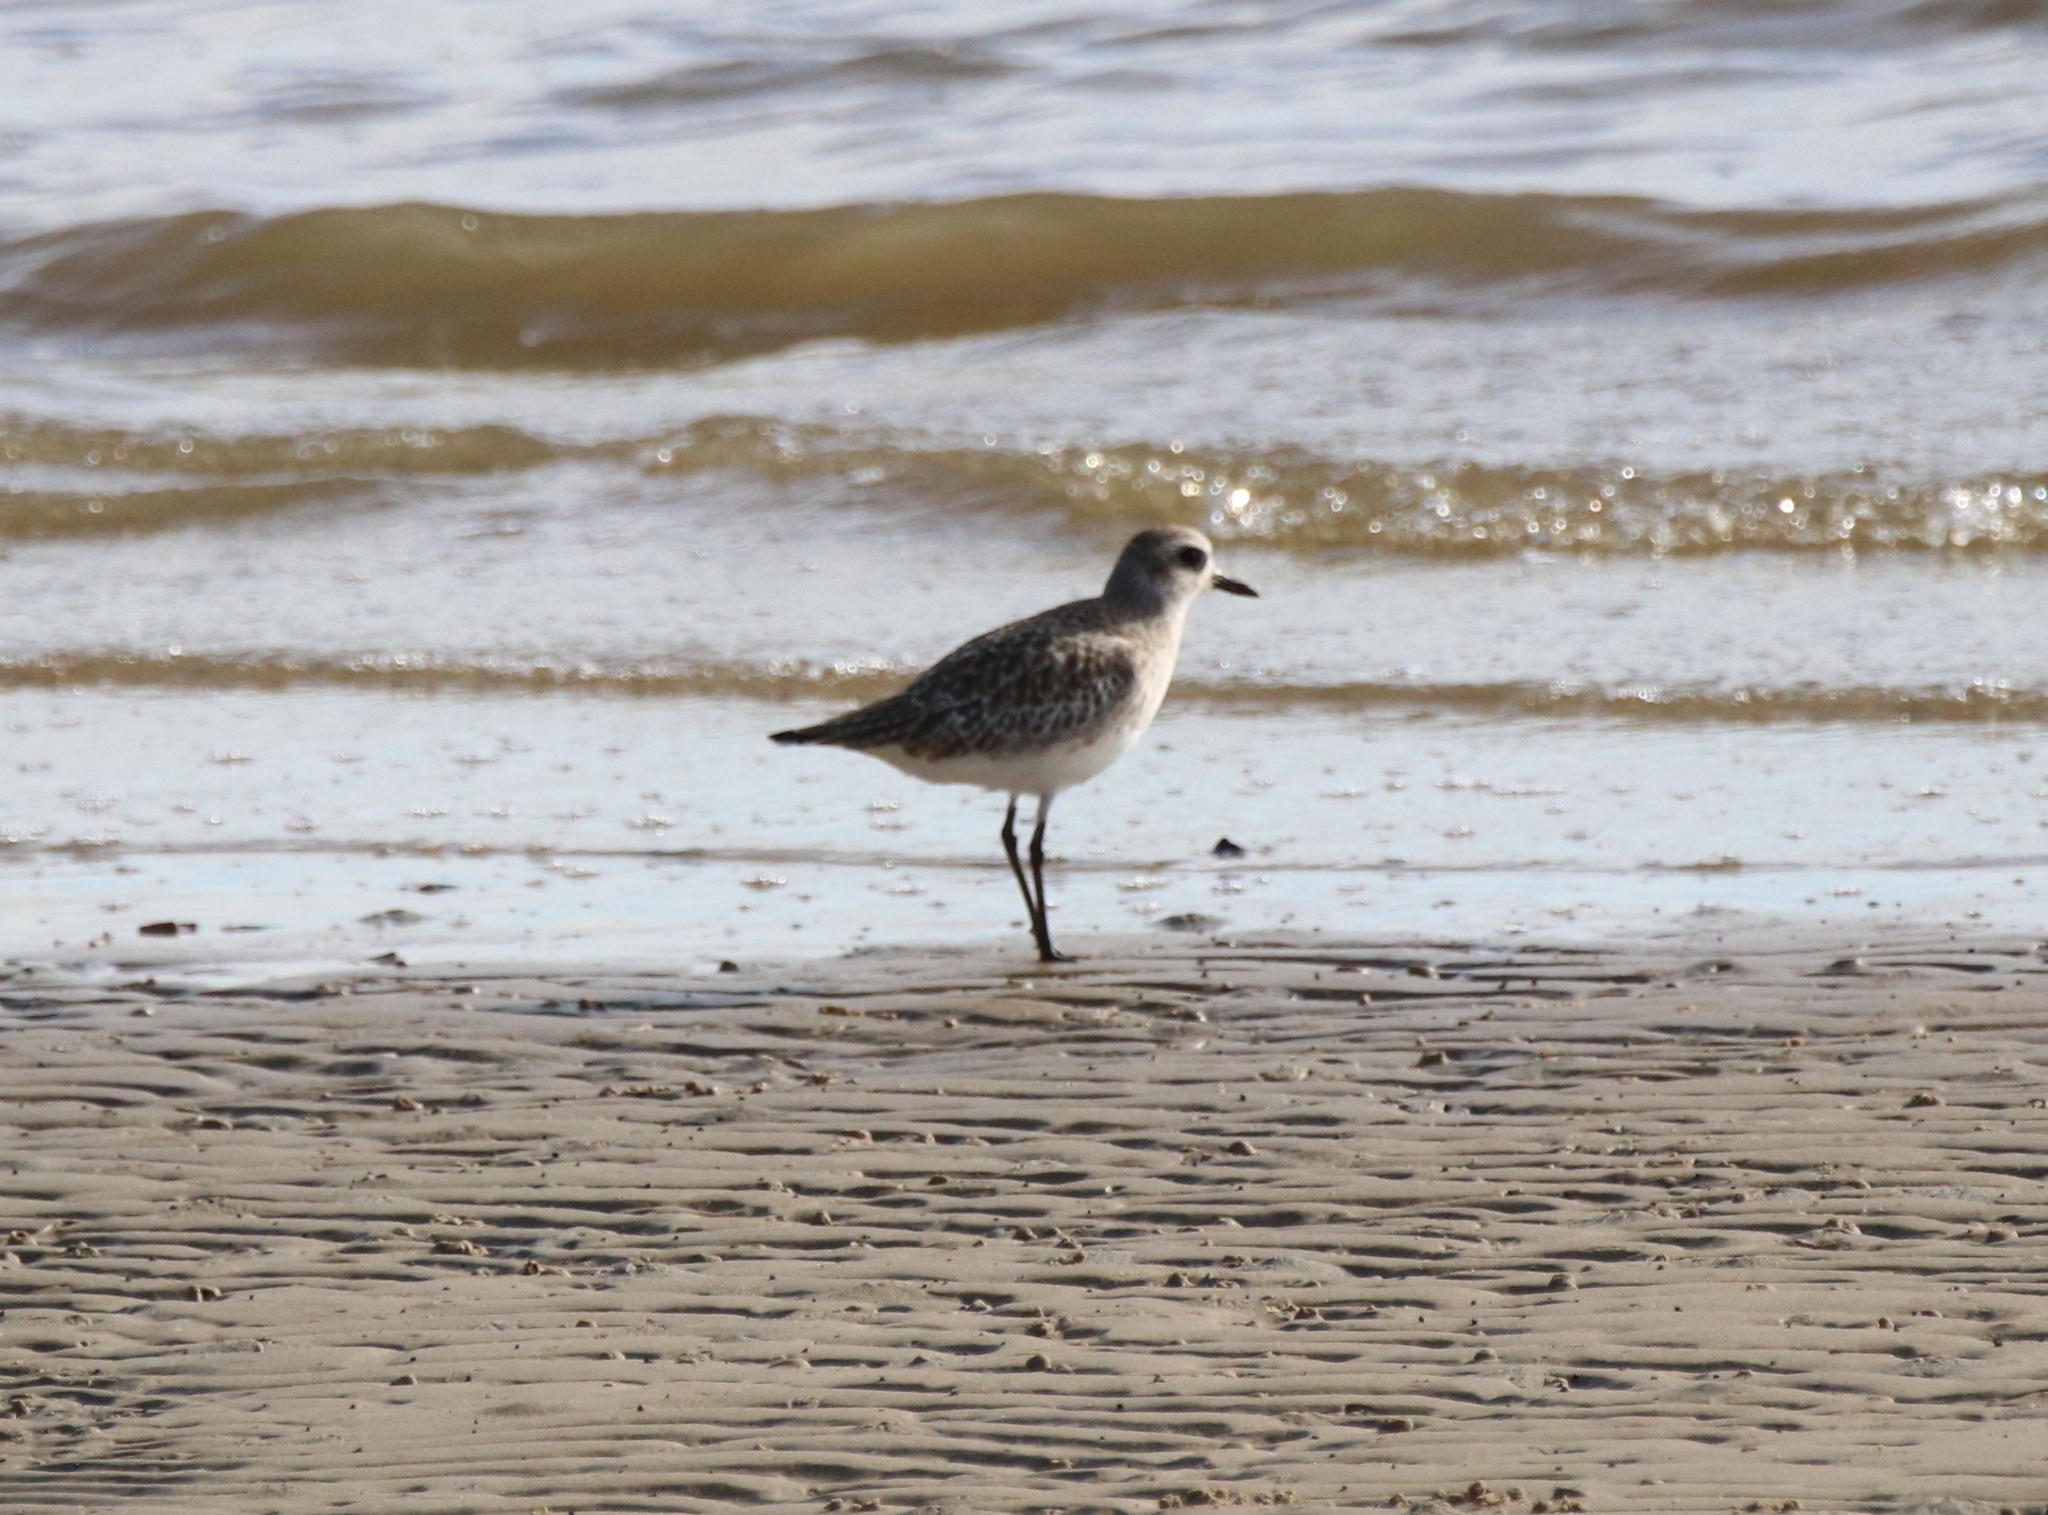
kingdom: Animalia
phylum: Chordata
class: Aves
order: Charadriiformes
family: Charadriidae
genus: Pluvialis
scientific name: Pluvialis squatarola
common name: Grey plover
